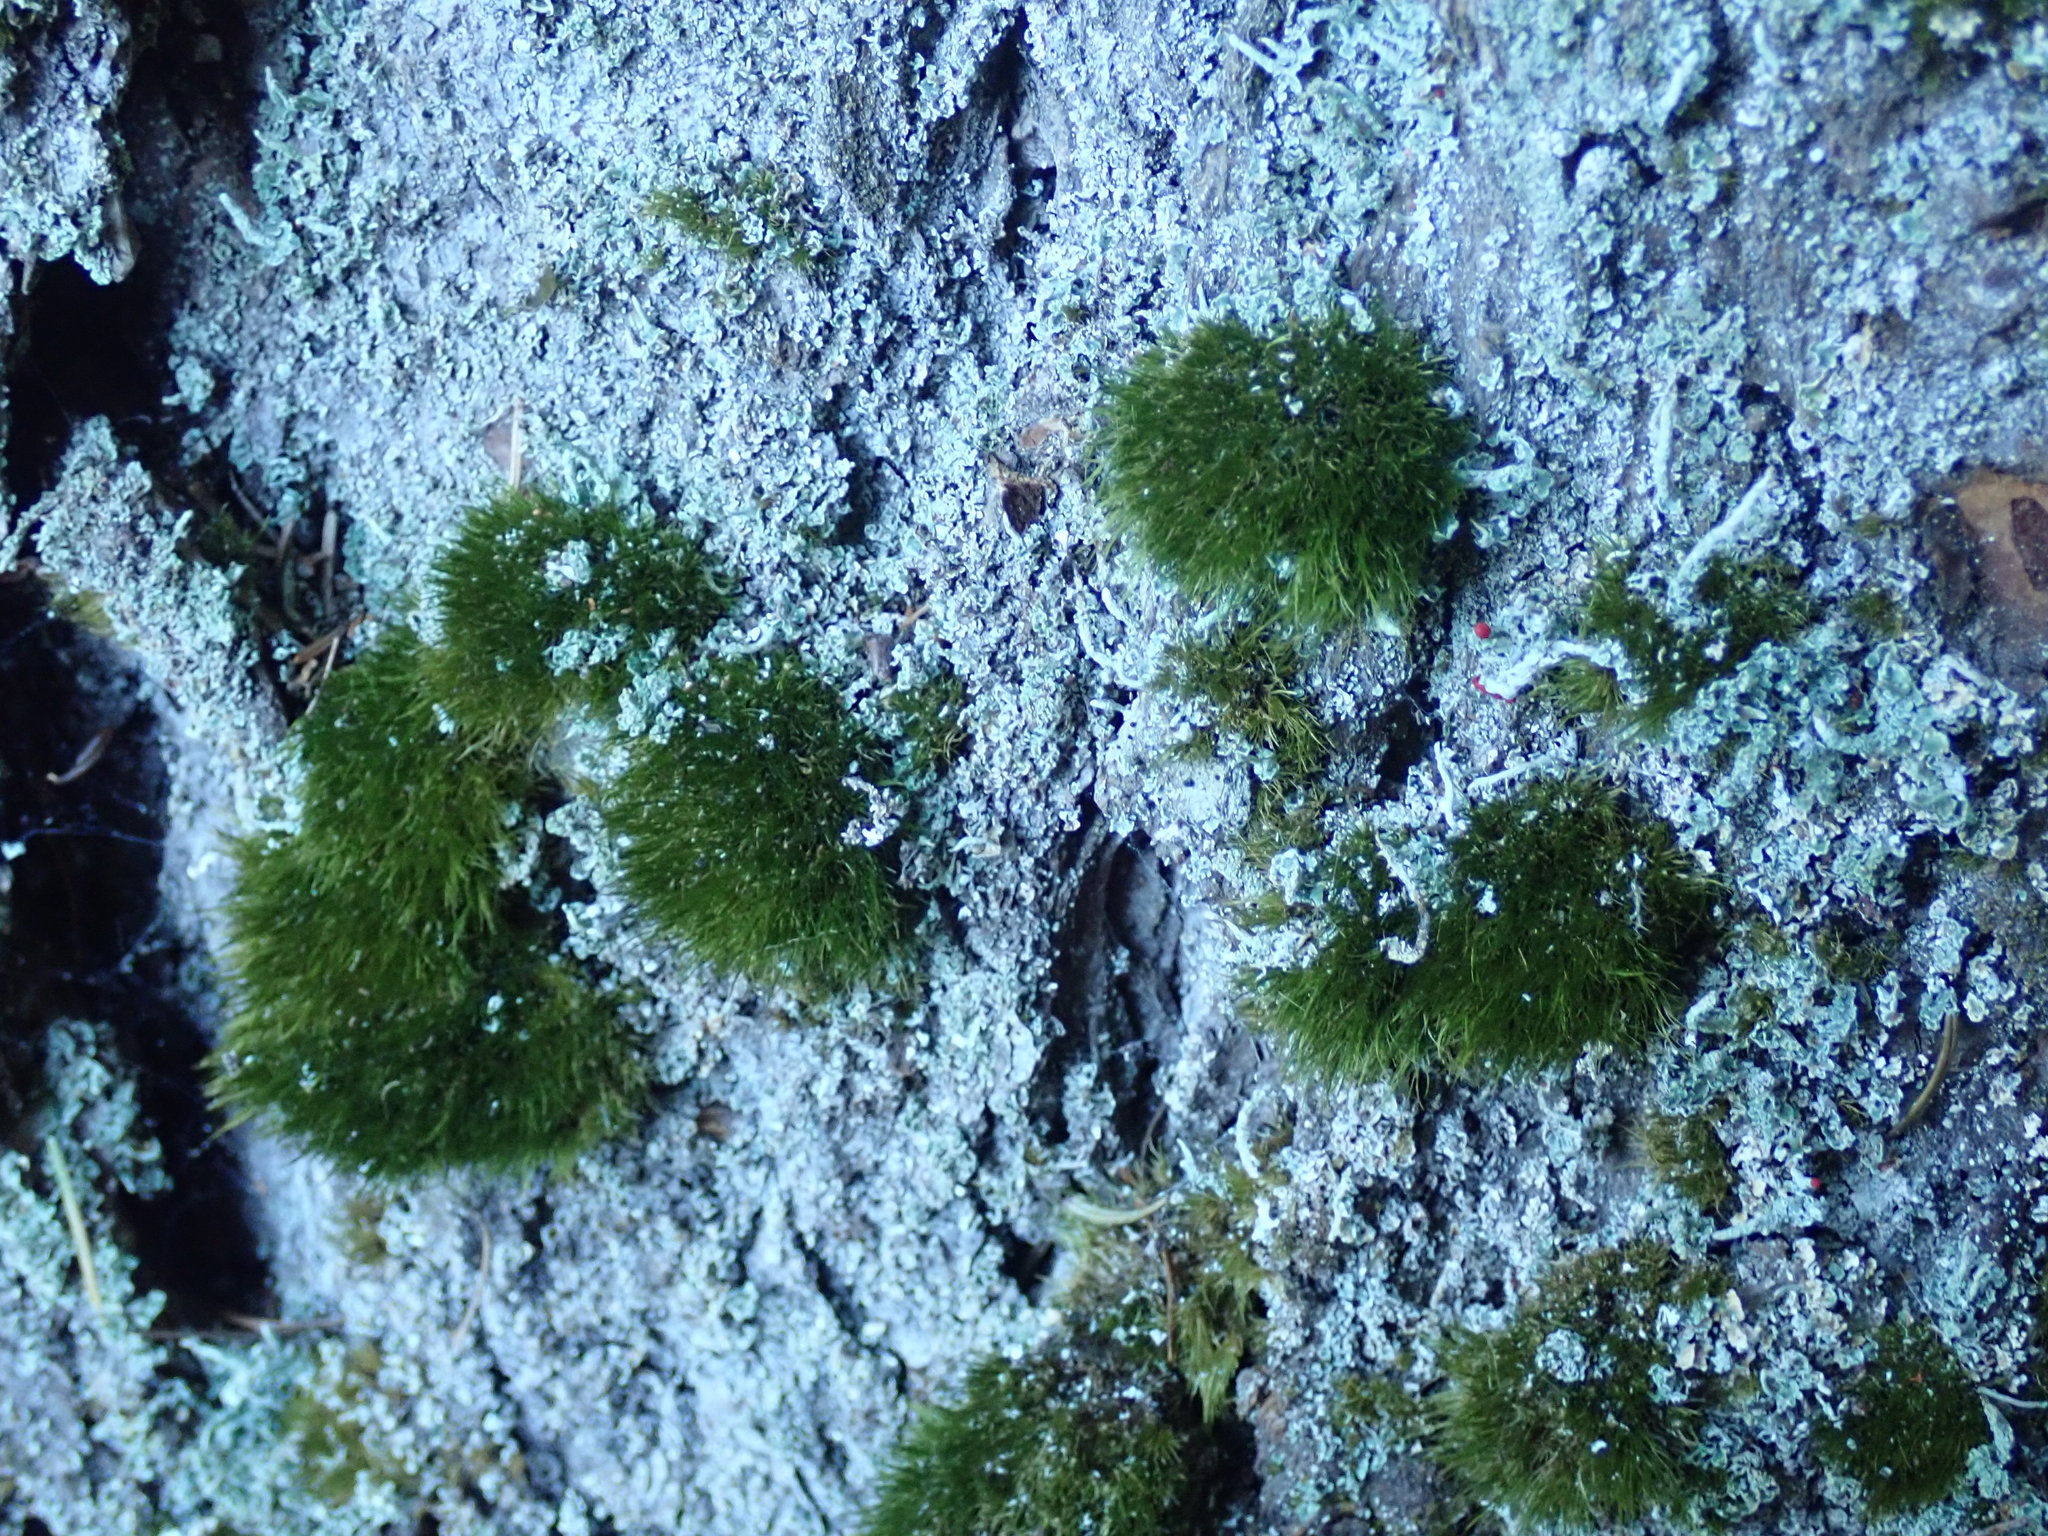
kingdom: Plantae
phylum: Bryophyta
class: Bryopsida
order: Dicranales
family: Dicranaceae
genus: Orthodicranum
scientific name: Orthodicranum tauricum
